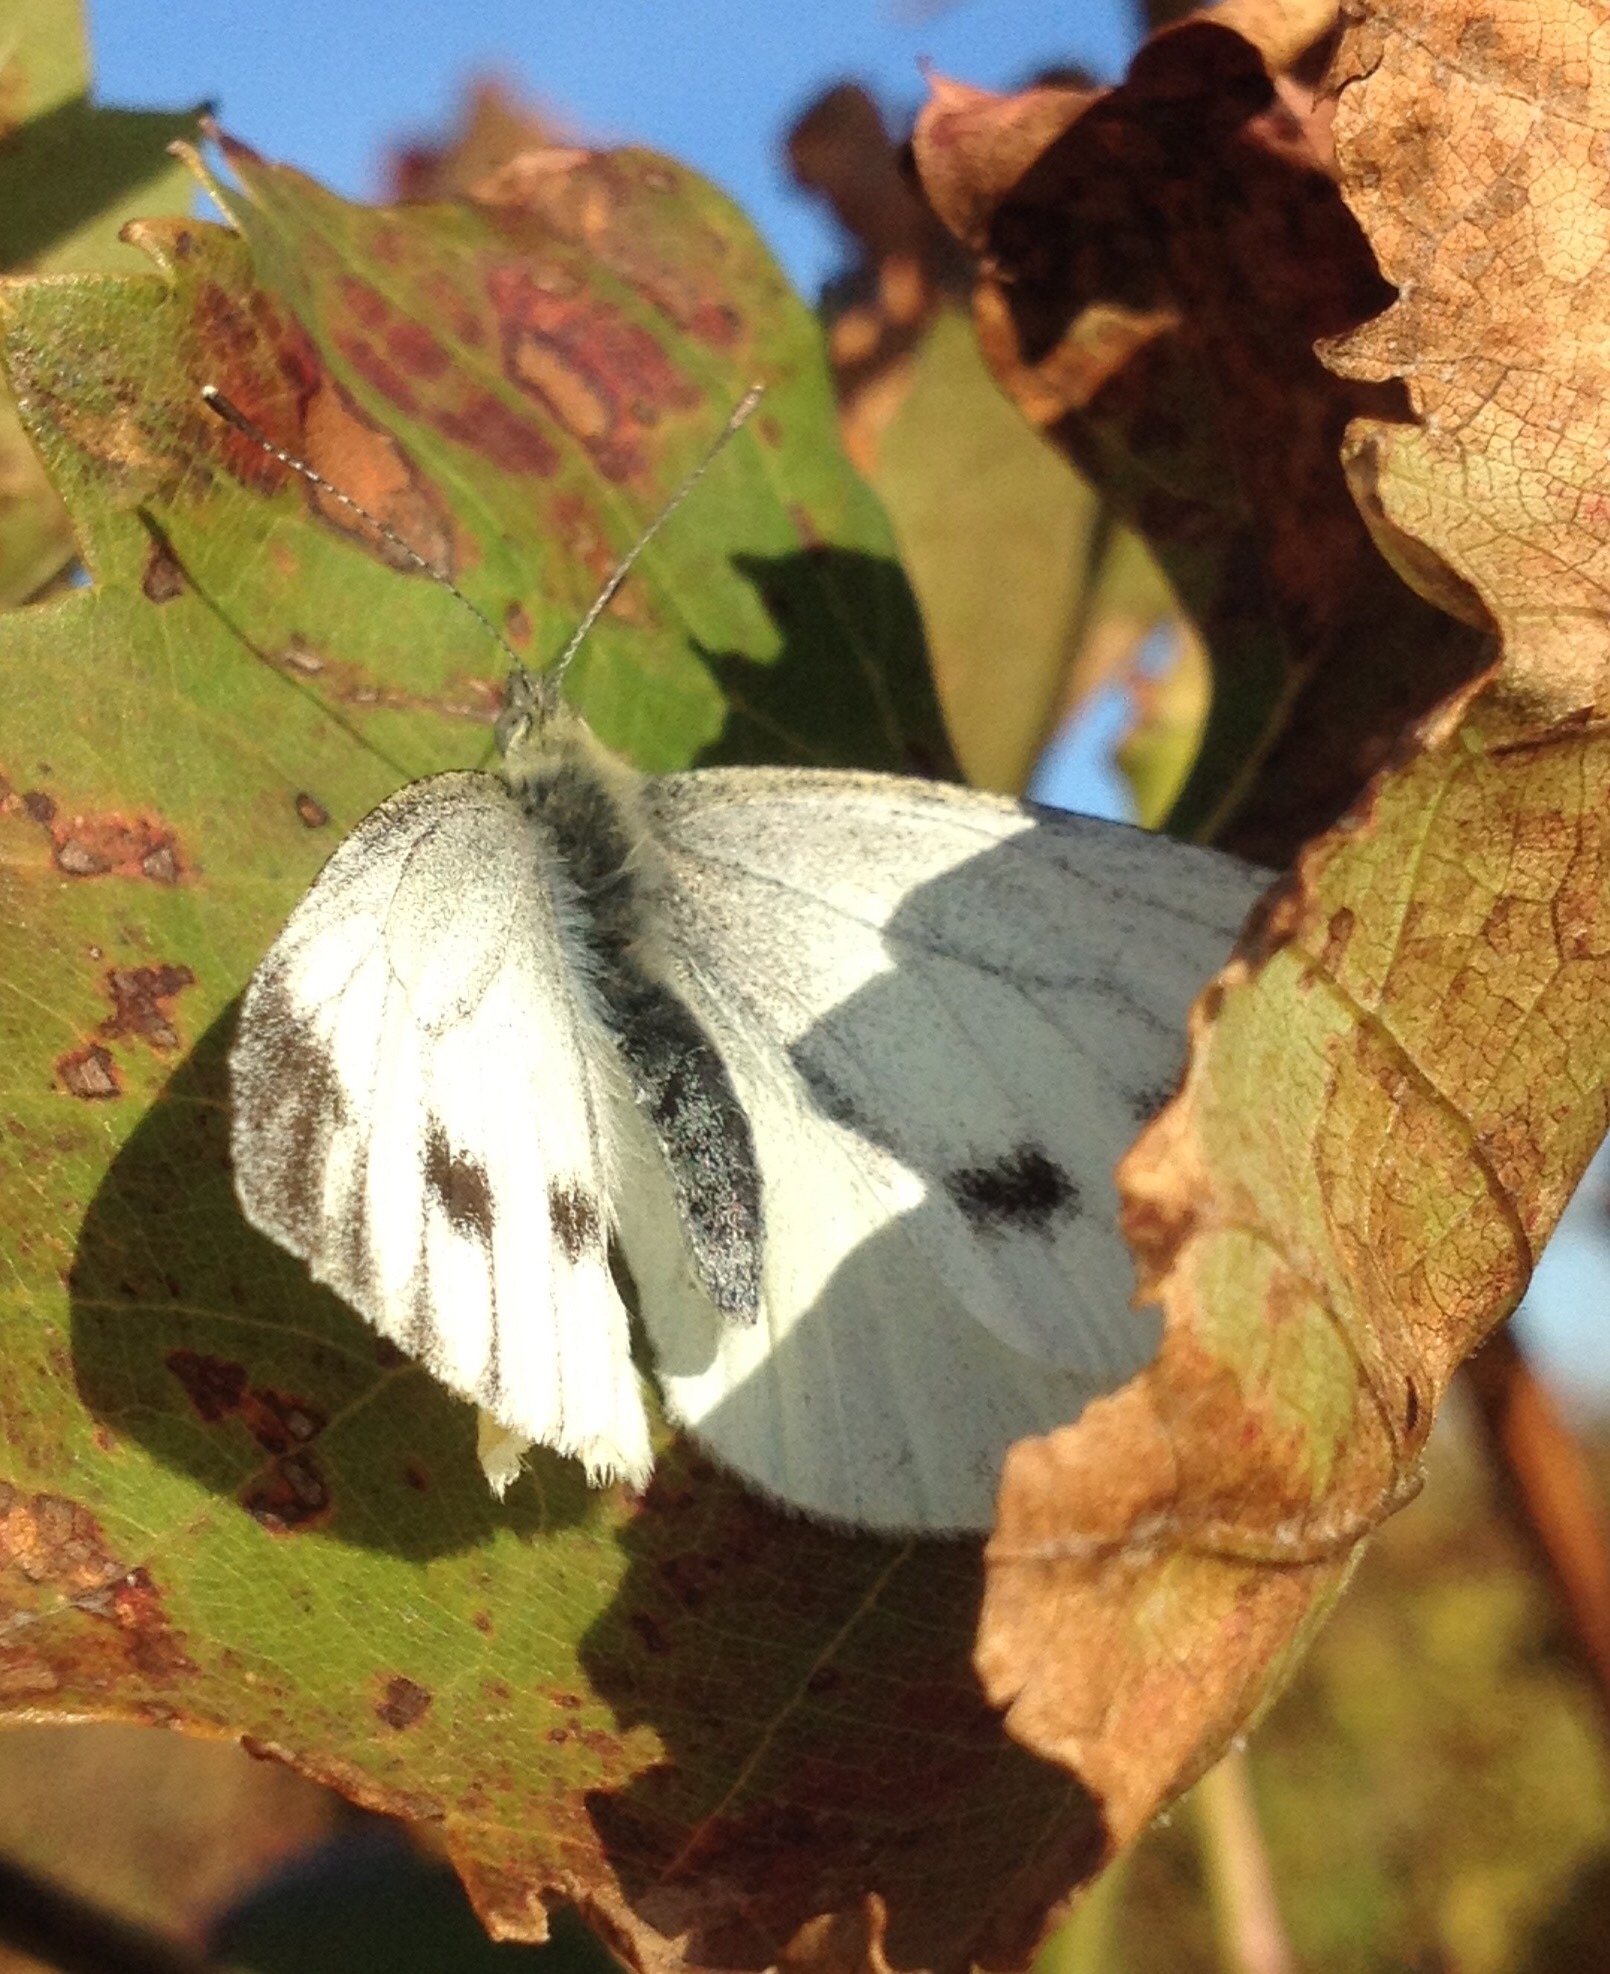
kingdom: Animalia
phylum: Arthropoda
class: Insecta
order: Lepidoptera
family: Pieridae
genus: Pieris
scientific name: Pieris napi
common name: Green-veined white
